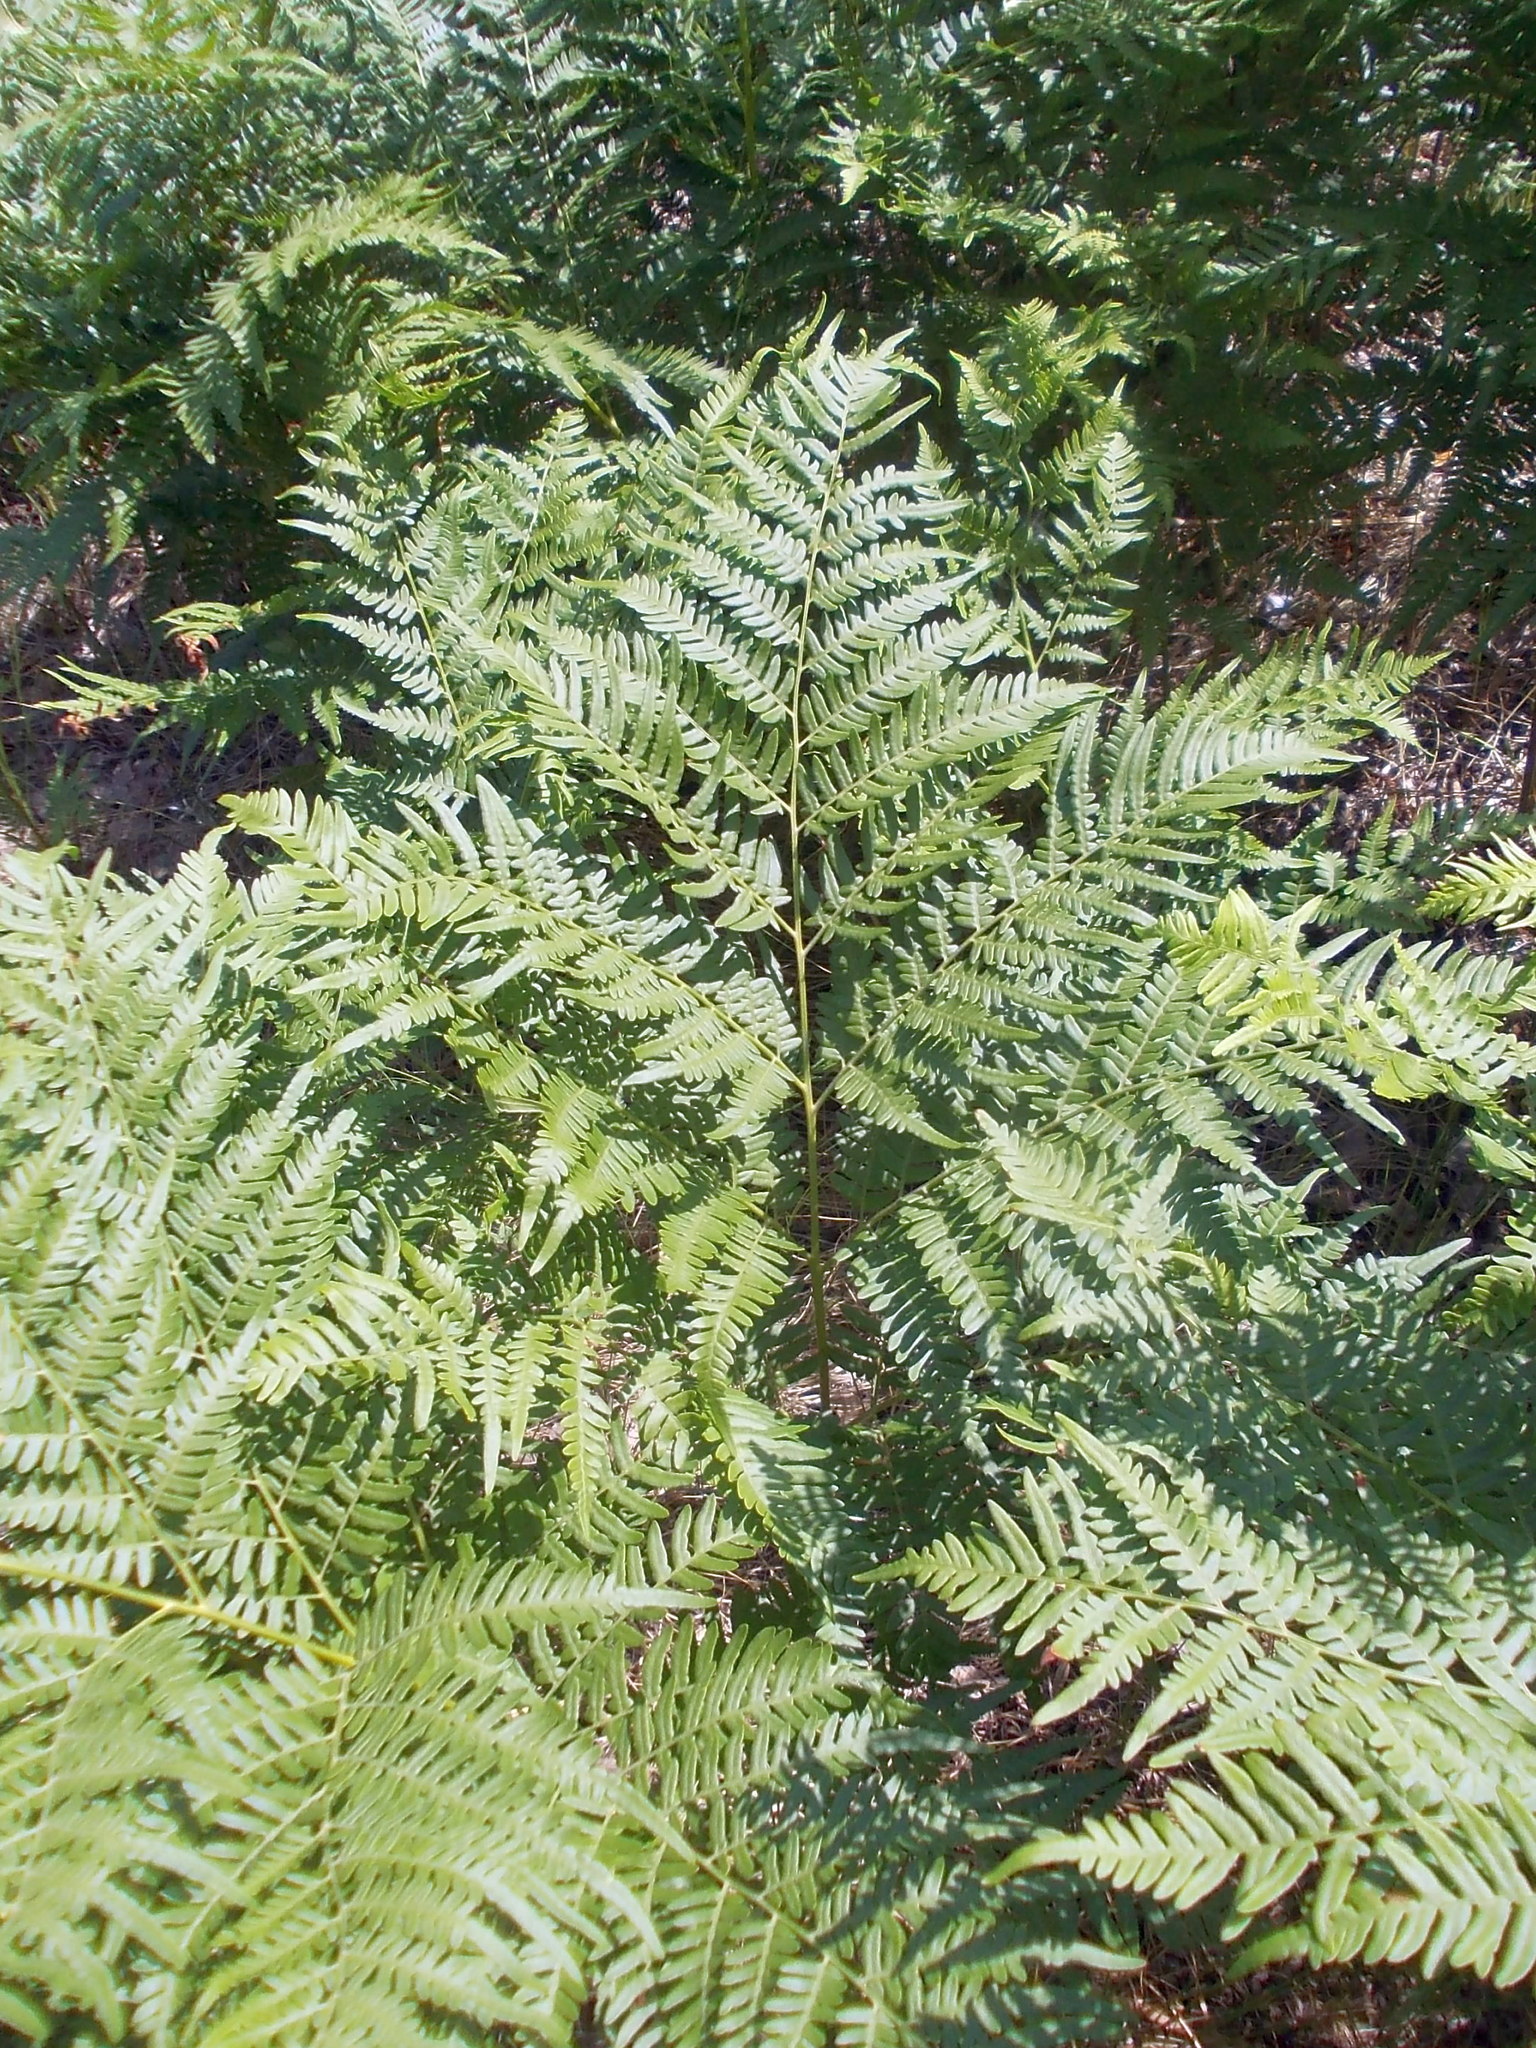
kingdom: Plantae
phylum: Tracheophyta
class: Polypodiopsida
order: Polypodiales
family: Dennstaedtiaceae
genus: Pteridium
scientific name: Pteridium aquilinum
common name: Bracken
